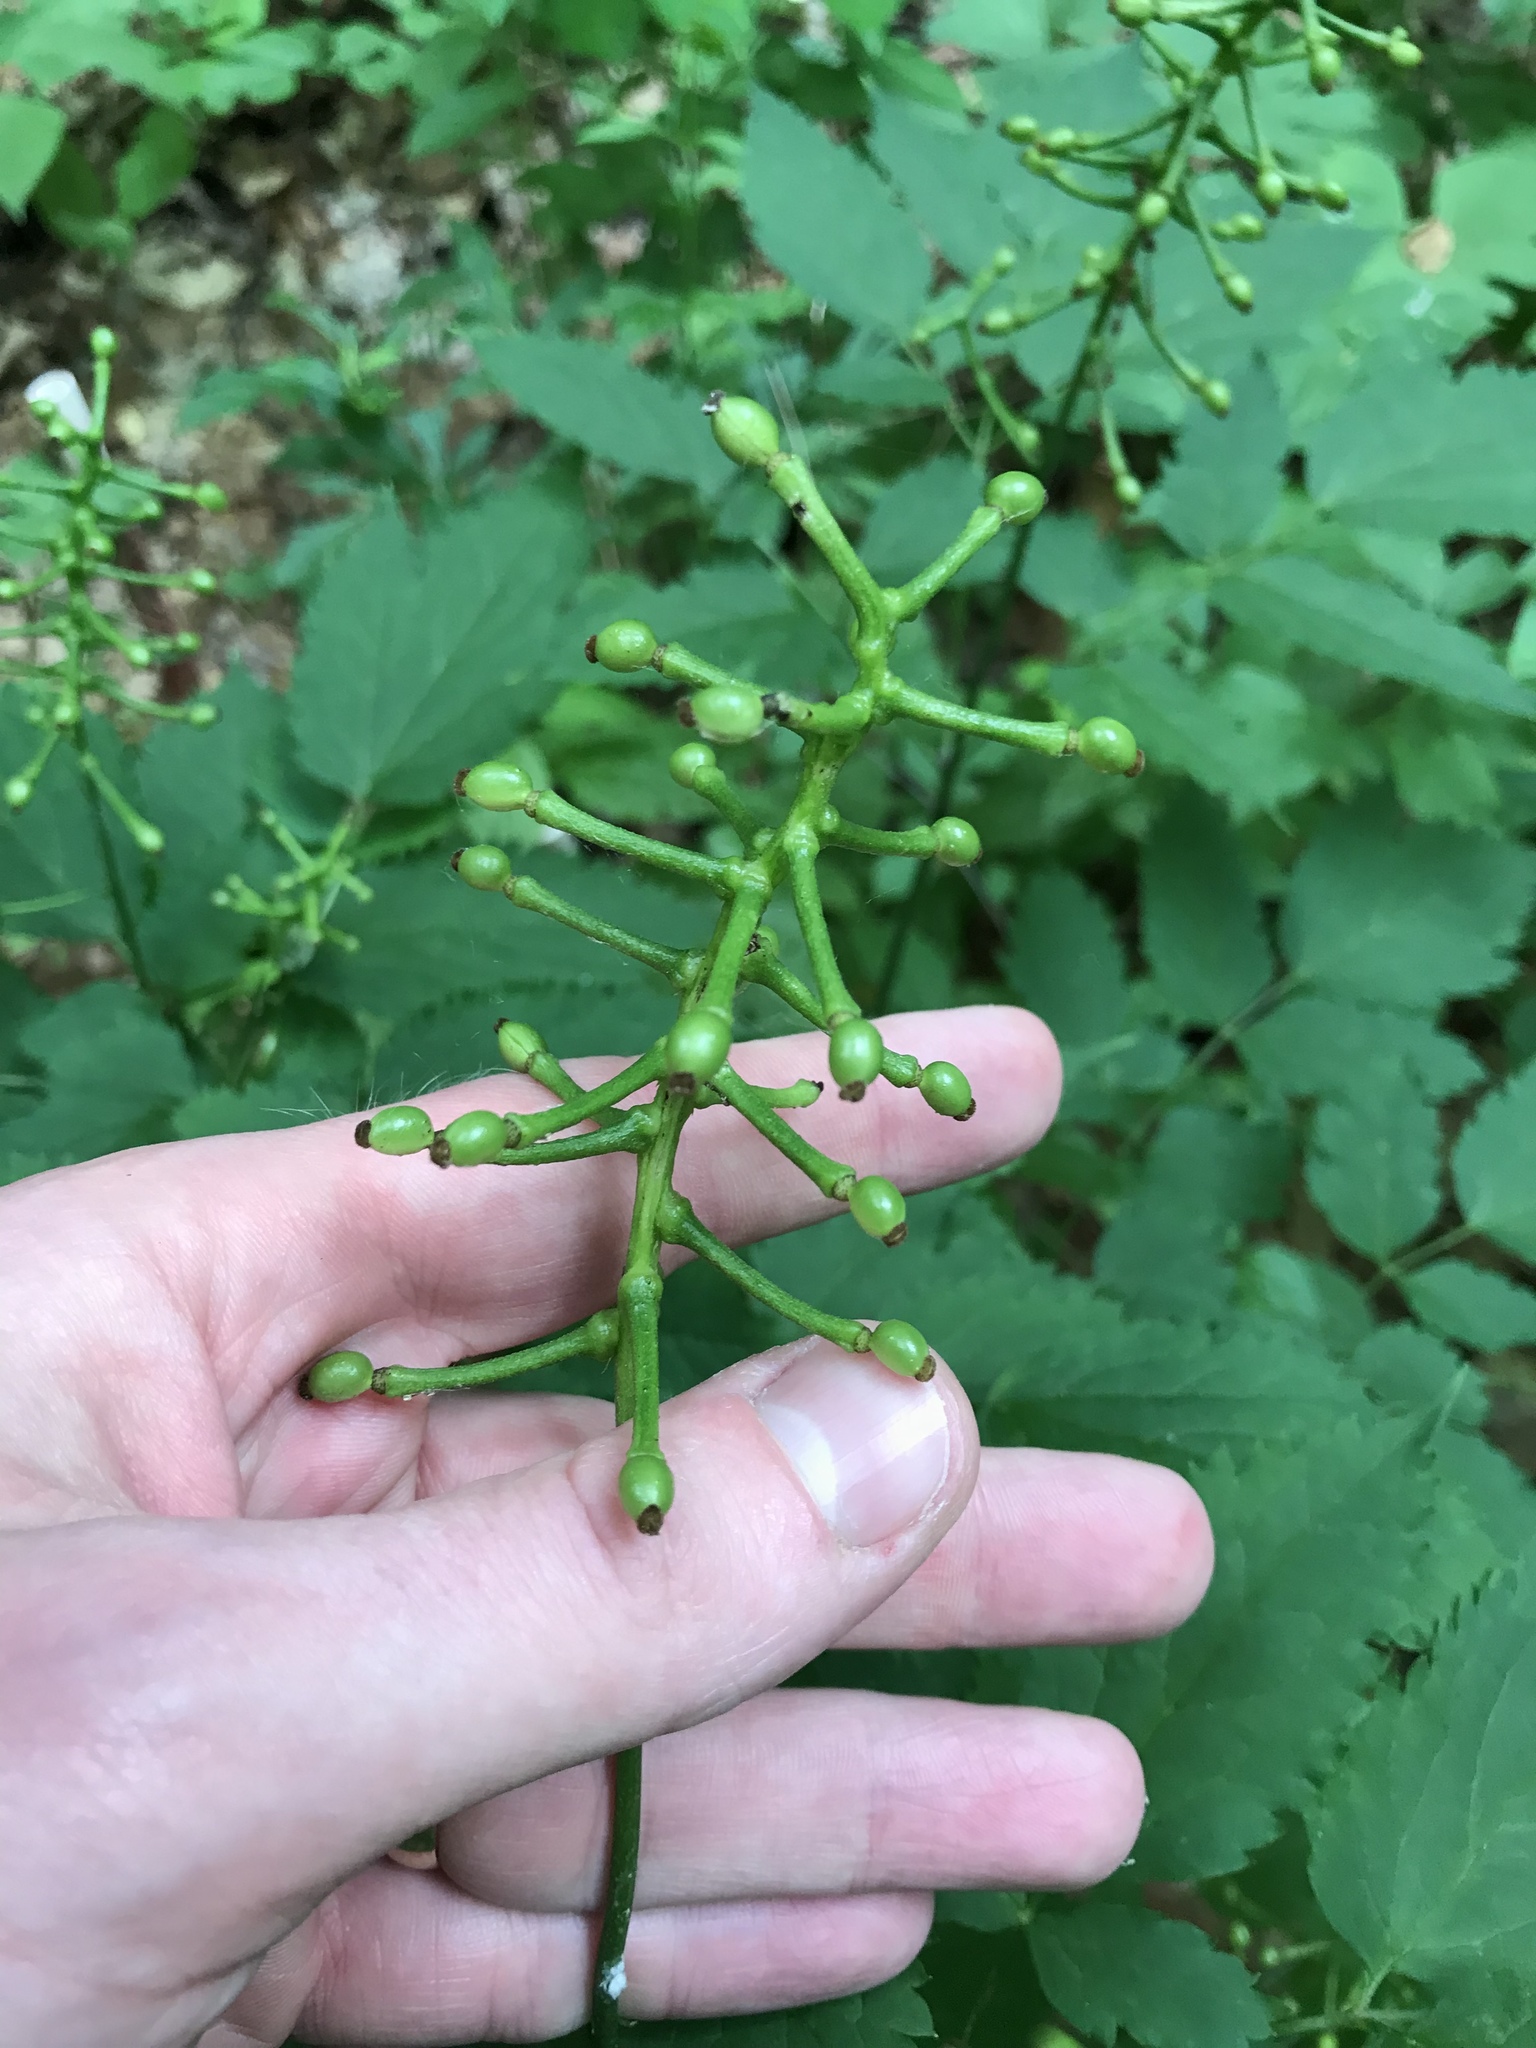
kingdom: Plantae
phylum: Tracheophyta
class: Magnoliopsida
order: Ranunculales
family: Ranunculaceae
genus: Actaea
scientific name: Actaea pachypoda
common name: Doll's-eyes
